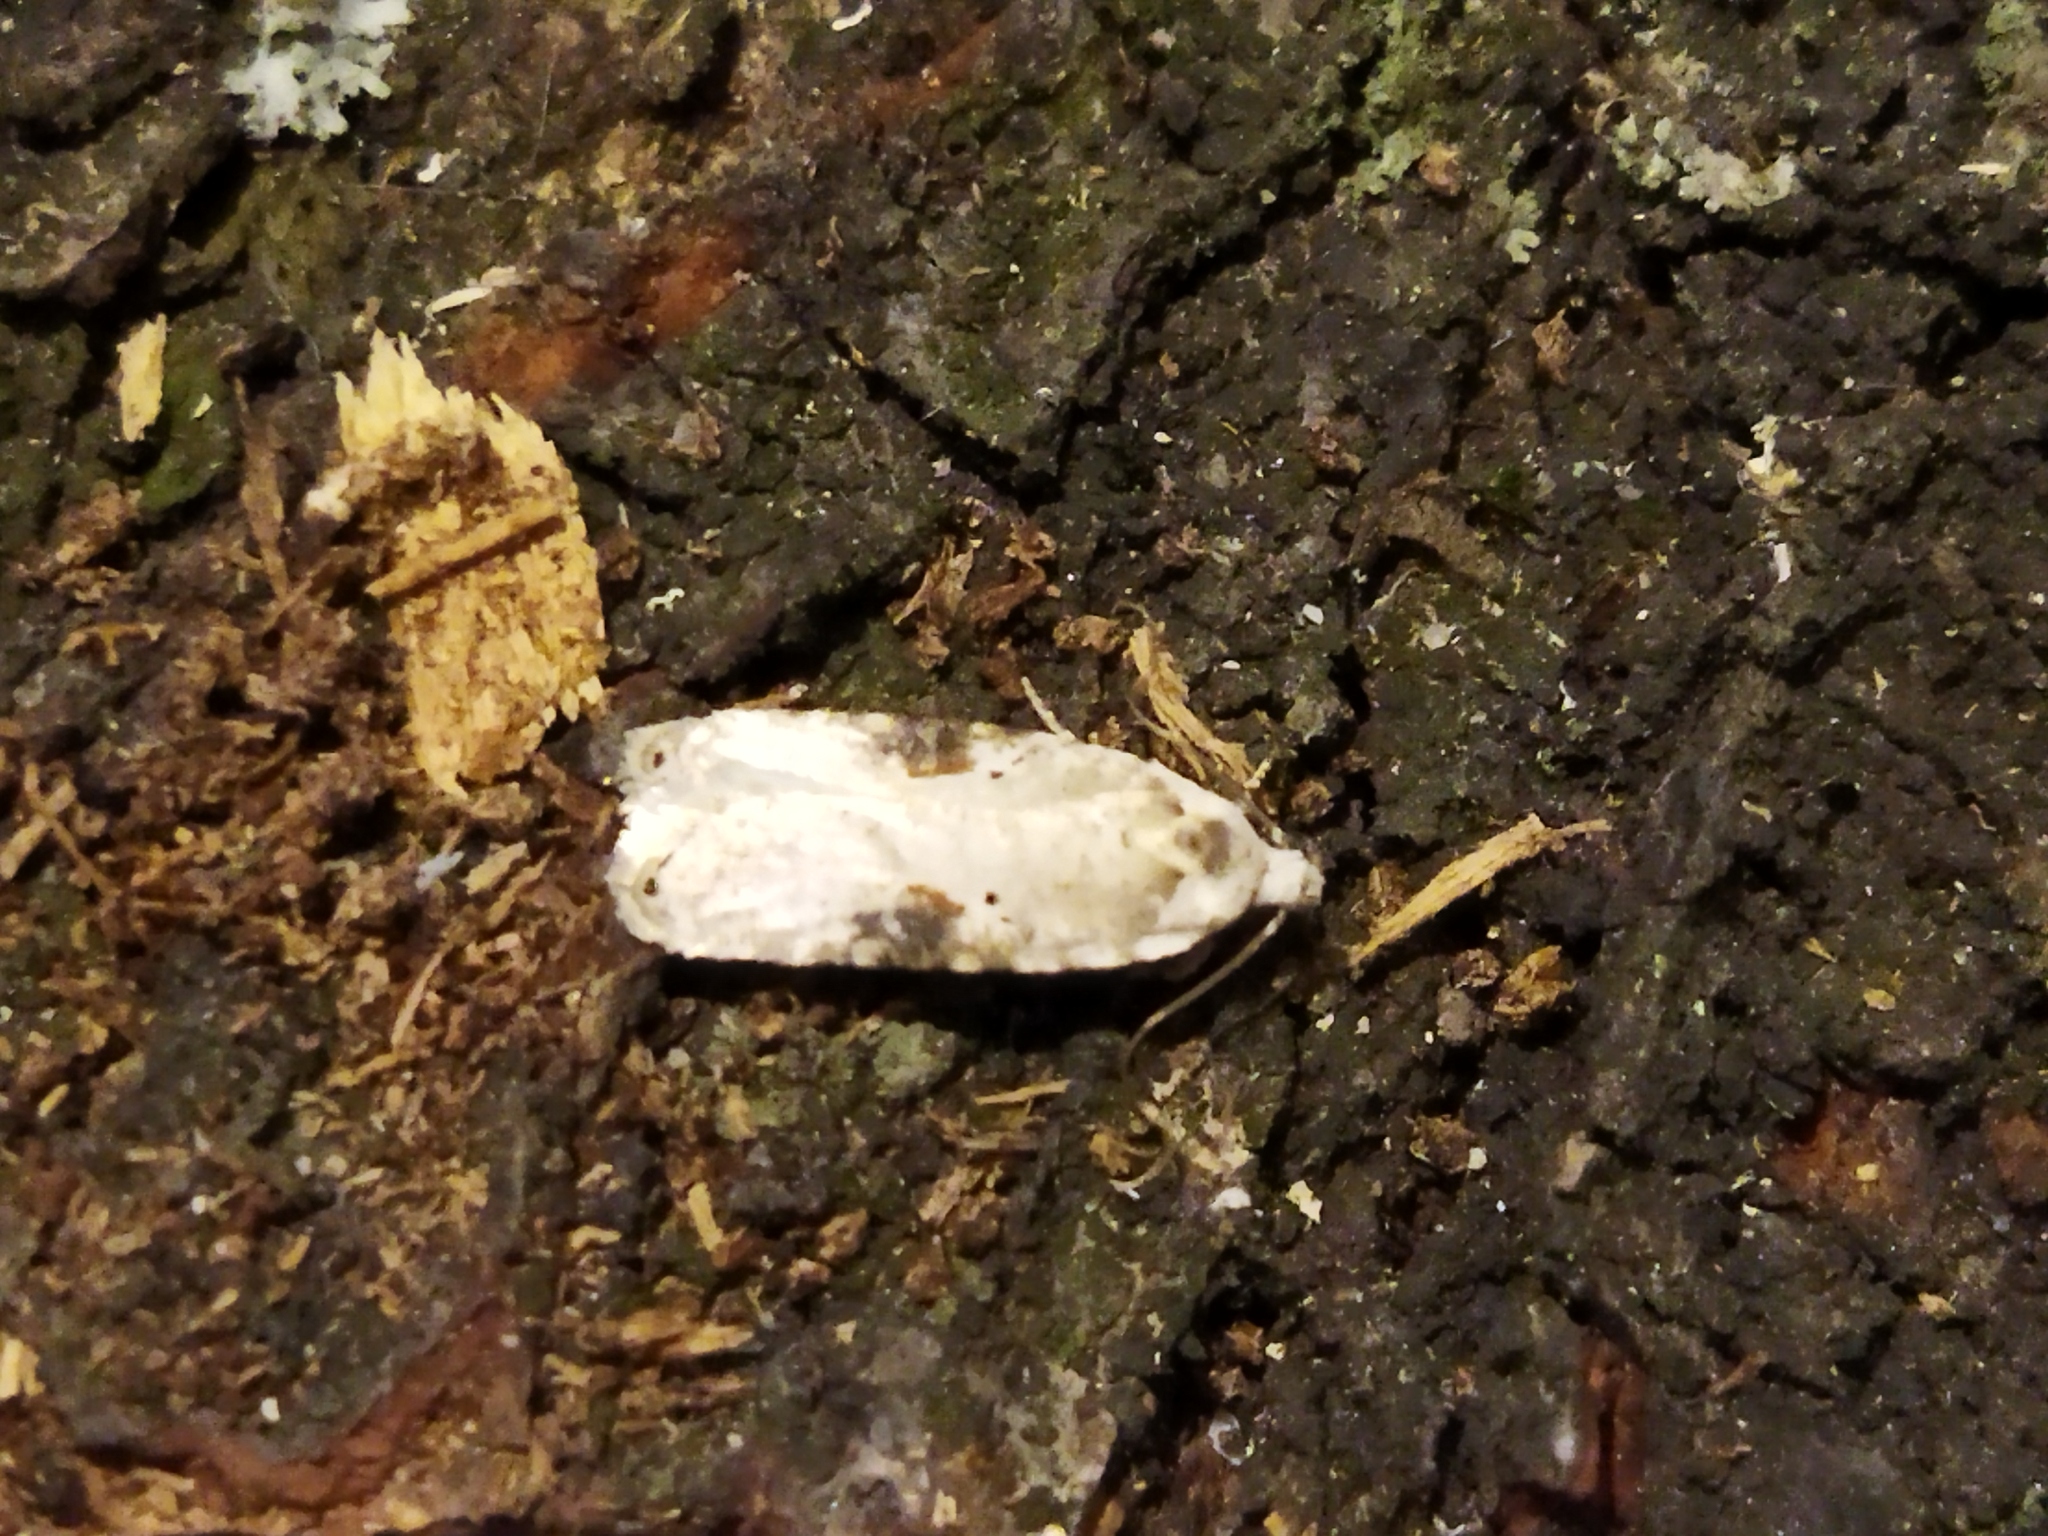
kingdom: Animalia
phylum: Arthropoda
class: Insecta
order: Lepidoptera
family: Depressariidae
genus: Agonopterix
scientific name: Agonopterix alstroemeriana
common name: Moth
